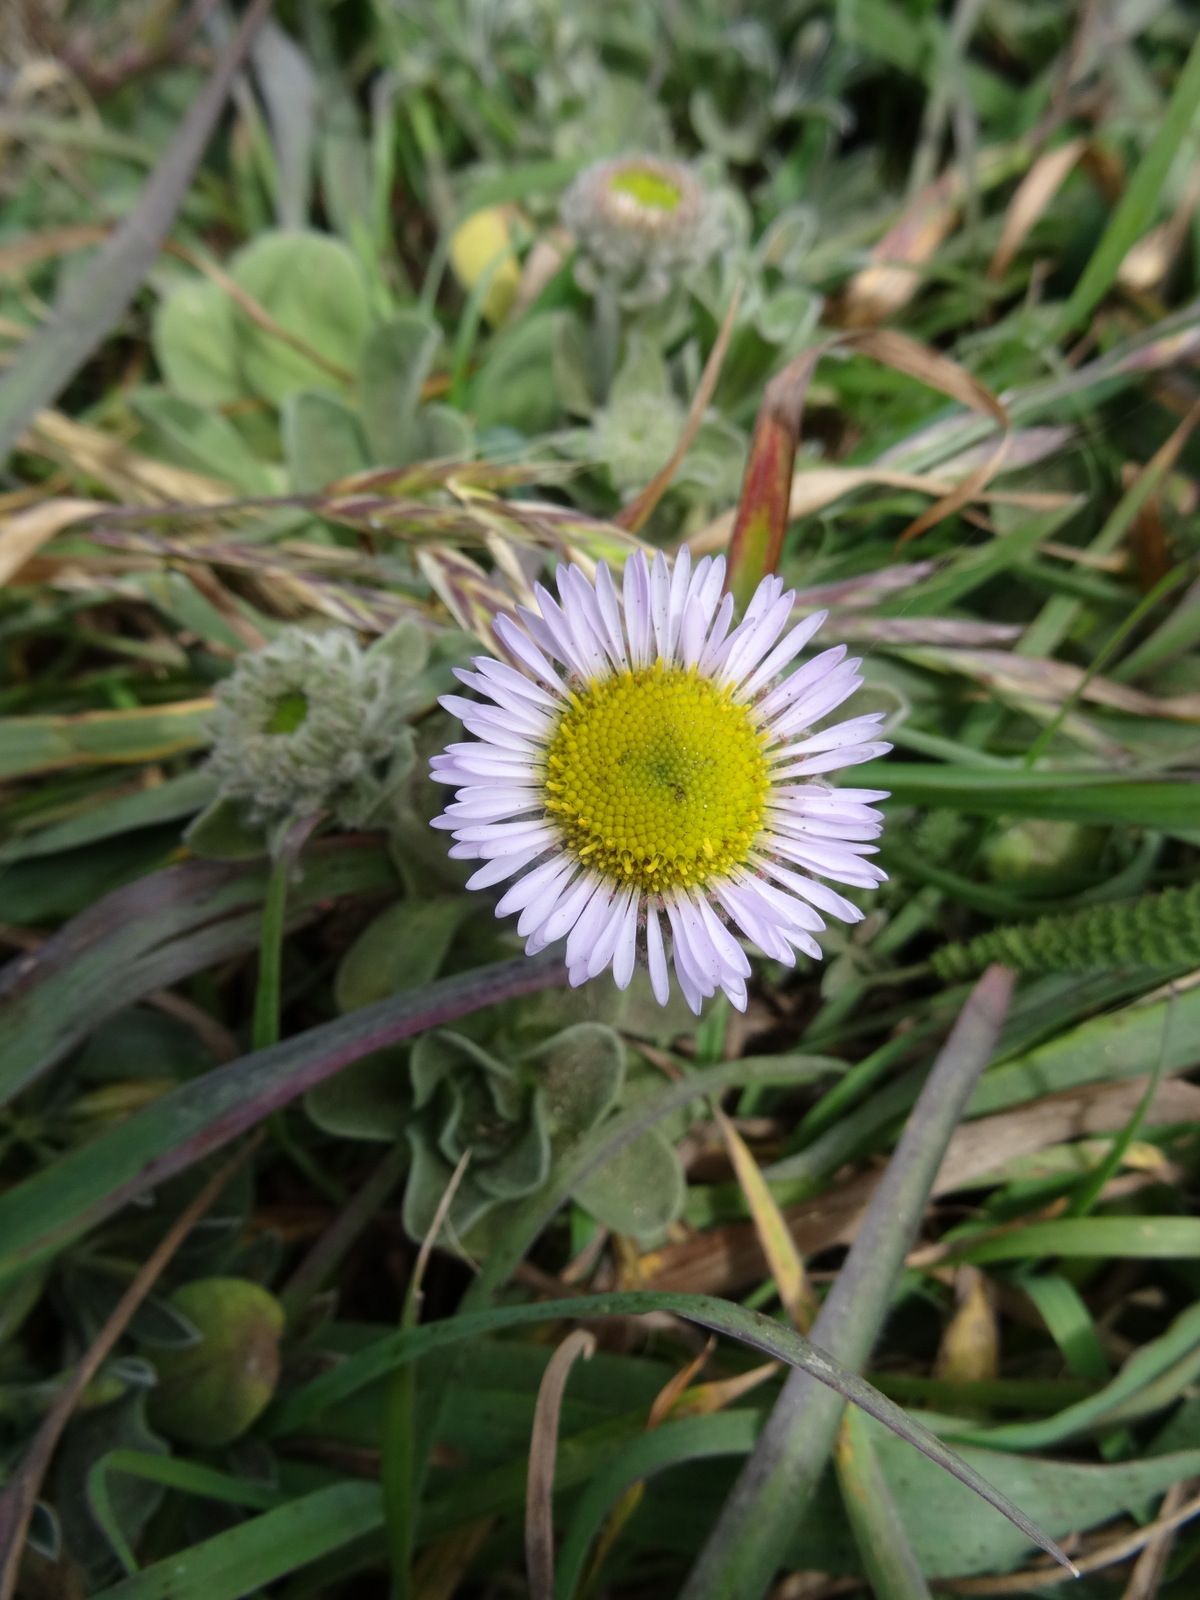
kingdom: Plantae
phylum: Tracheophyta
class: Magnoliopsida
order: Asterales
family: Asteraceae
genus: Erigeron
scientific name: Erigeron glaucus
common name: Seaside daisy
